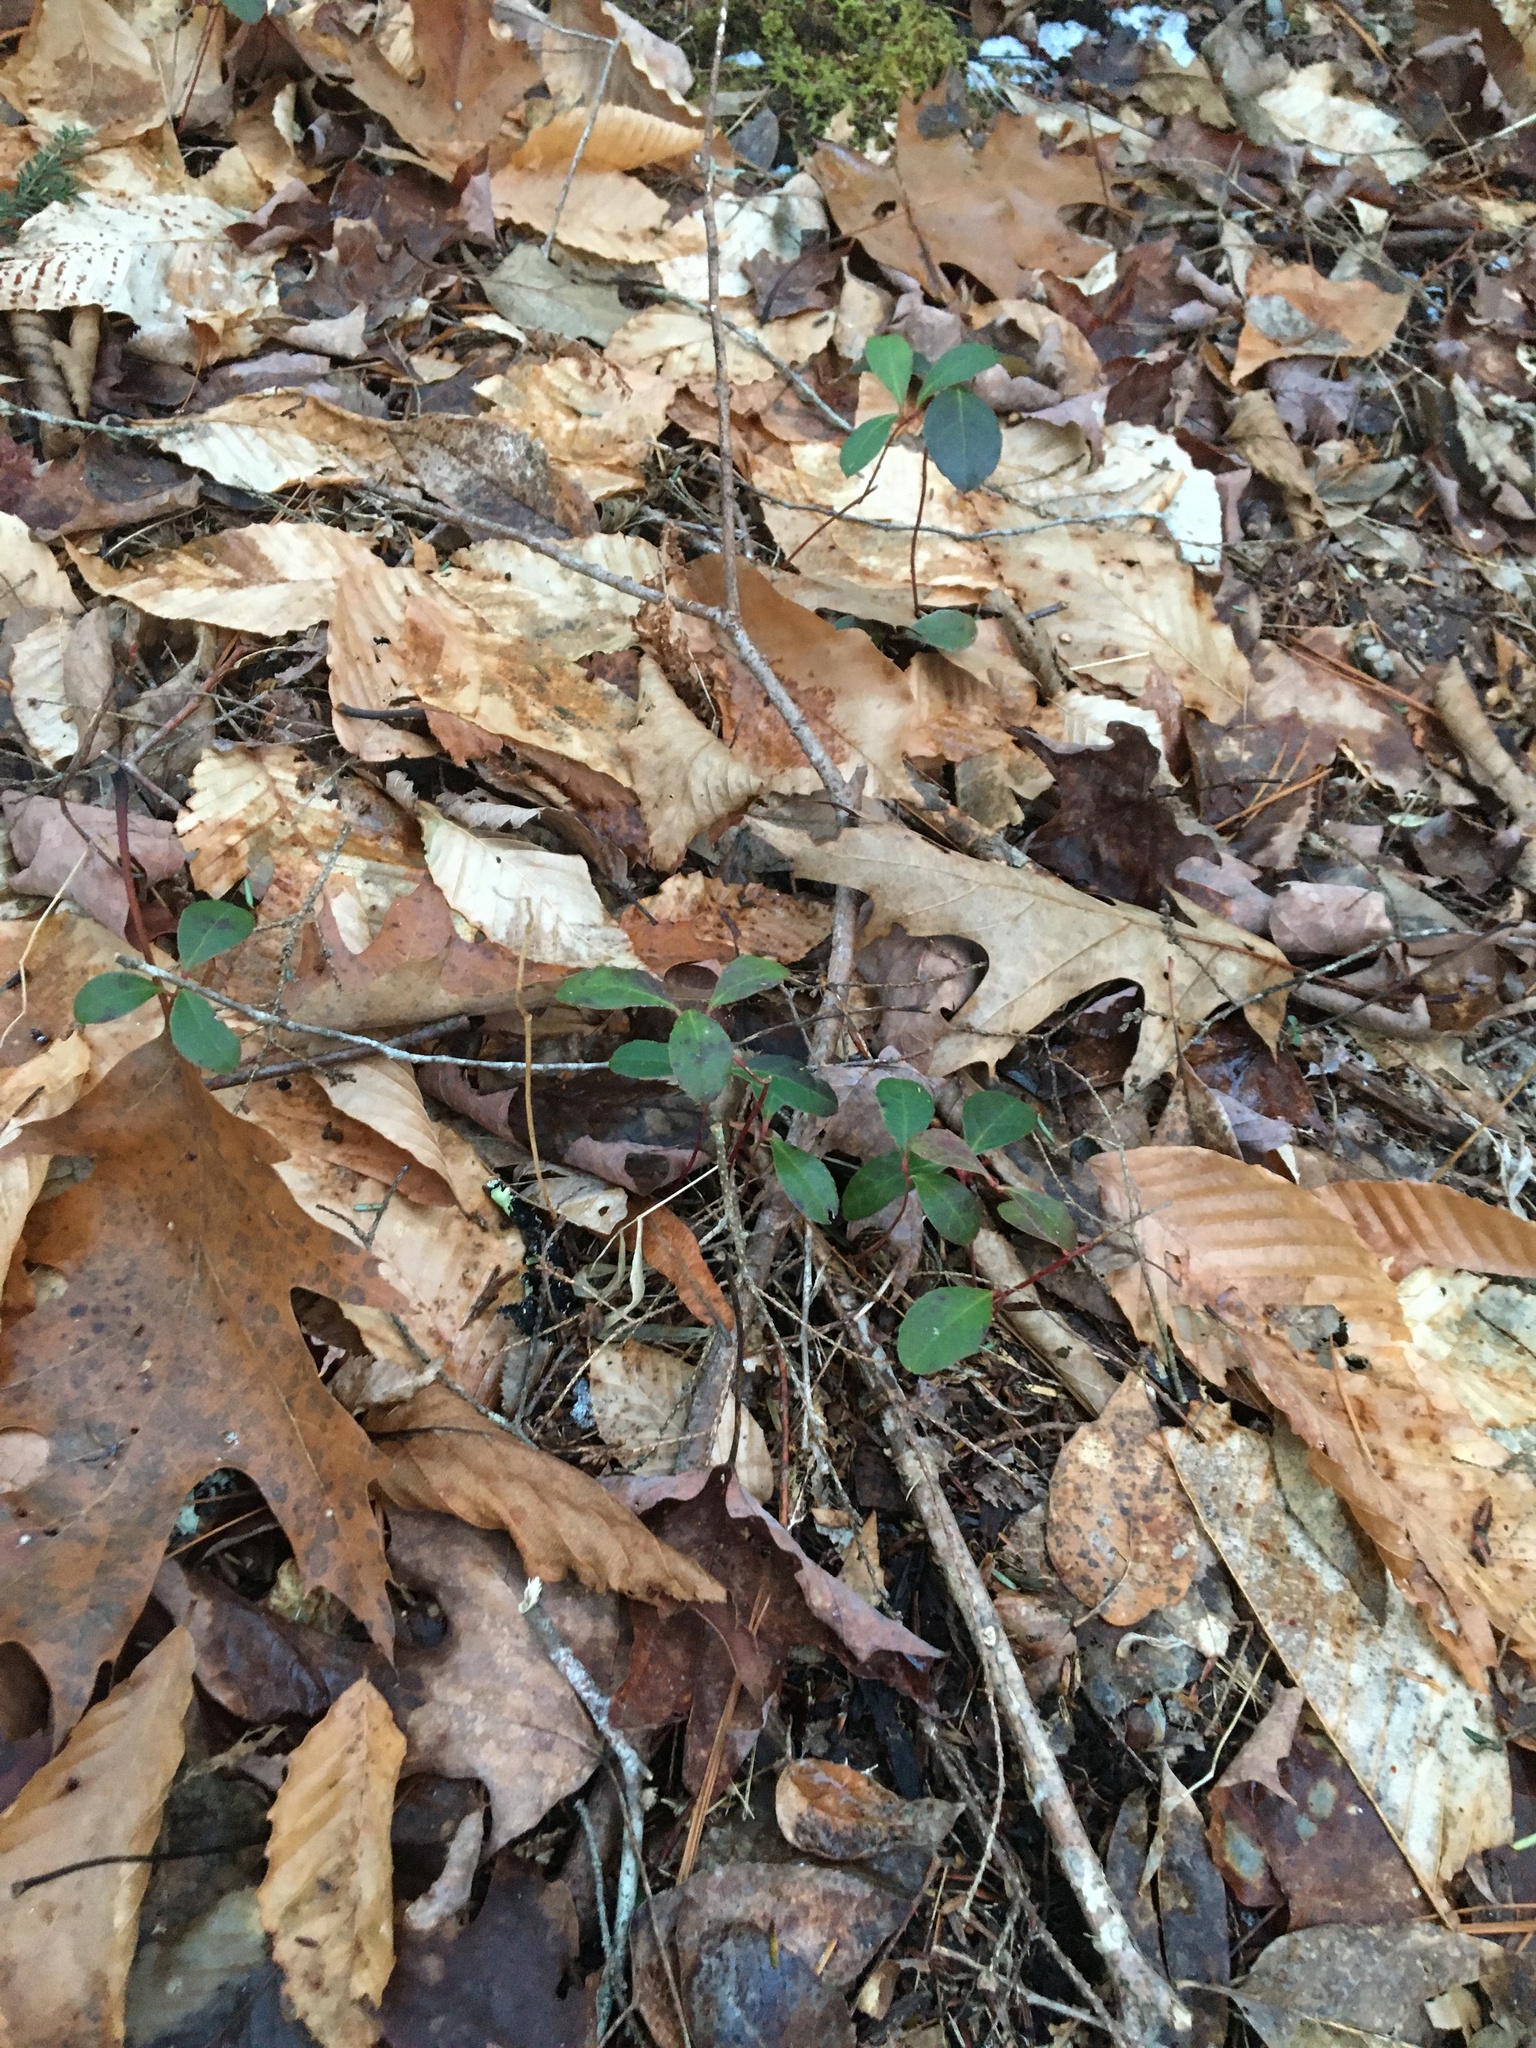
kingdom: Plantae
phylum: Tracheophyta
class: Magnoliopsida
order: Ericales
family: Ericaceae
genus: Gaultheria
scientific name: Gaultheria procumbens
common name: Checkerberry
